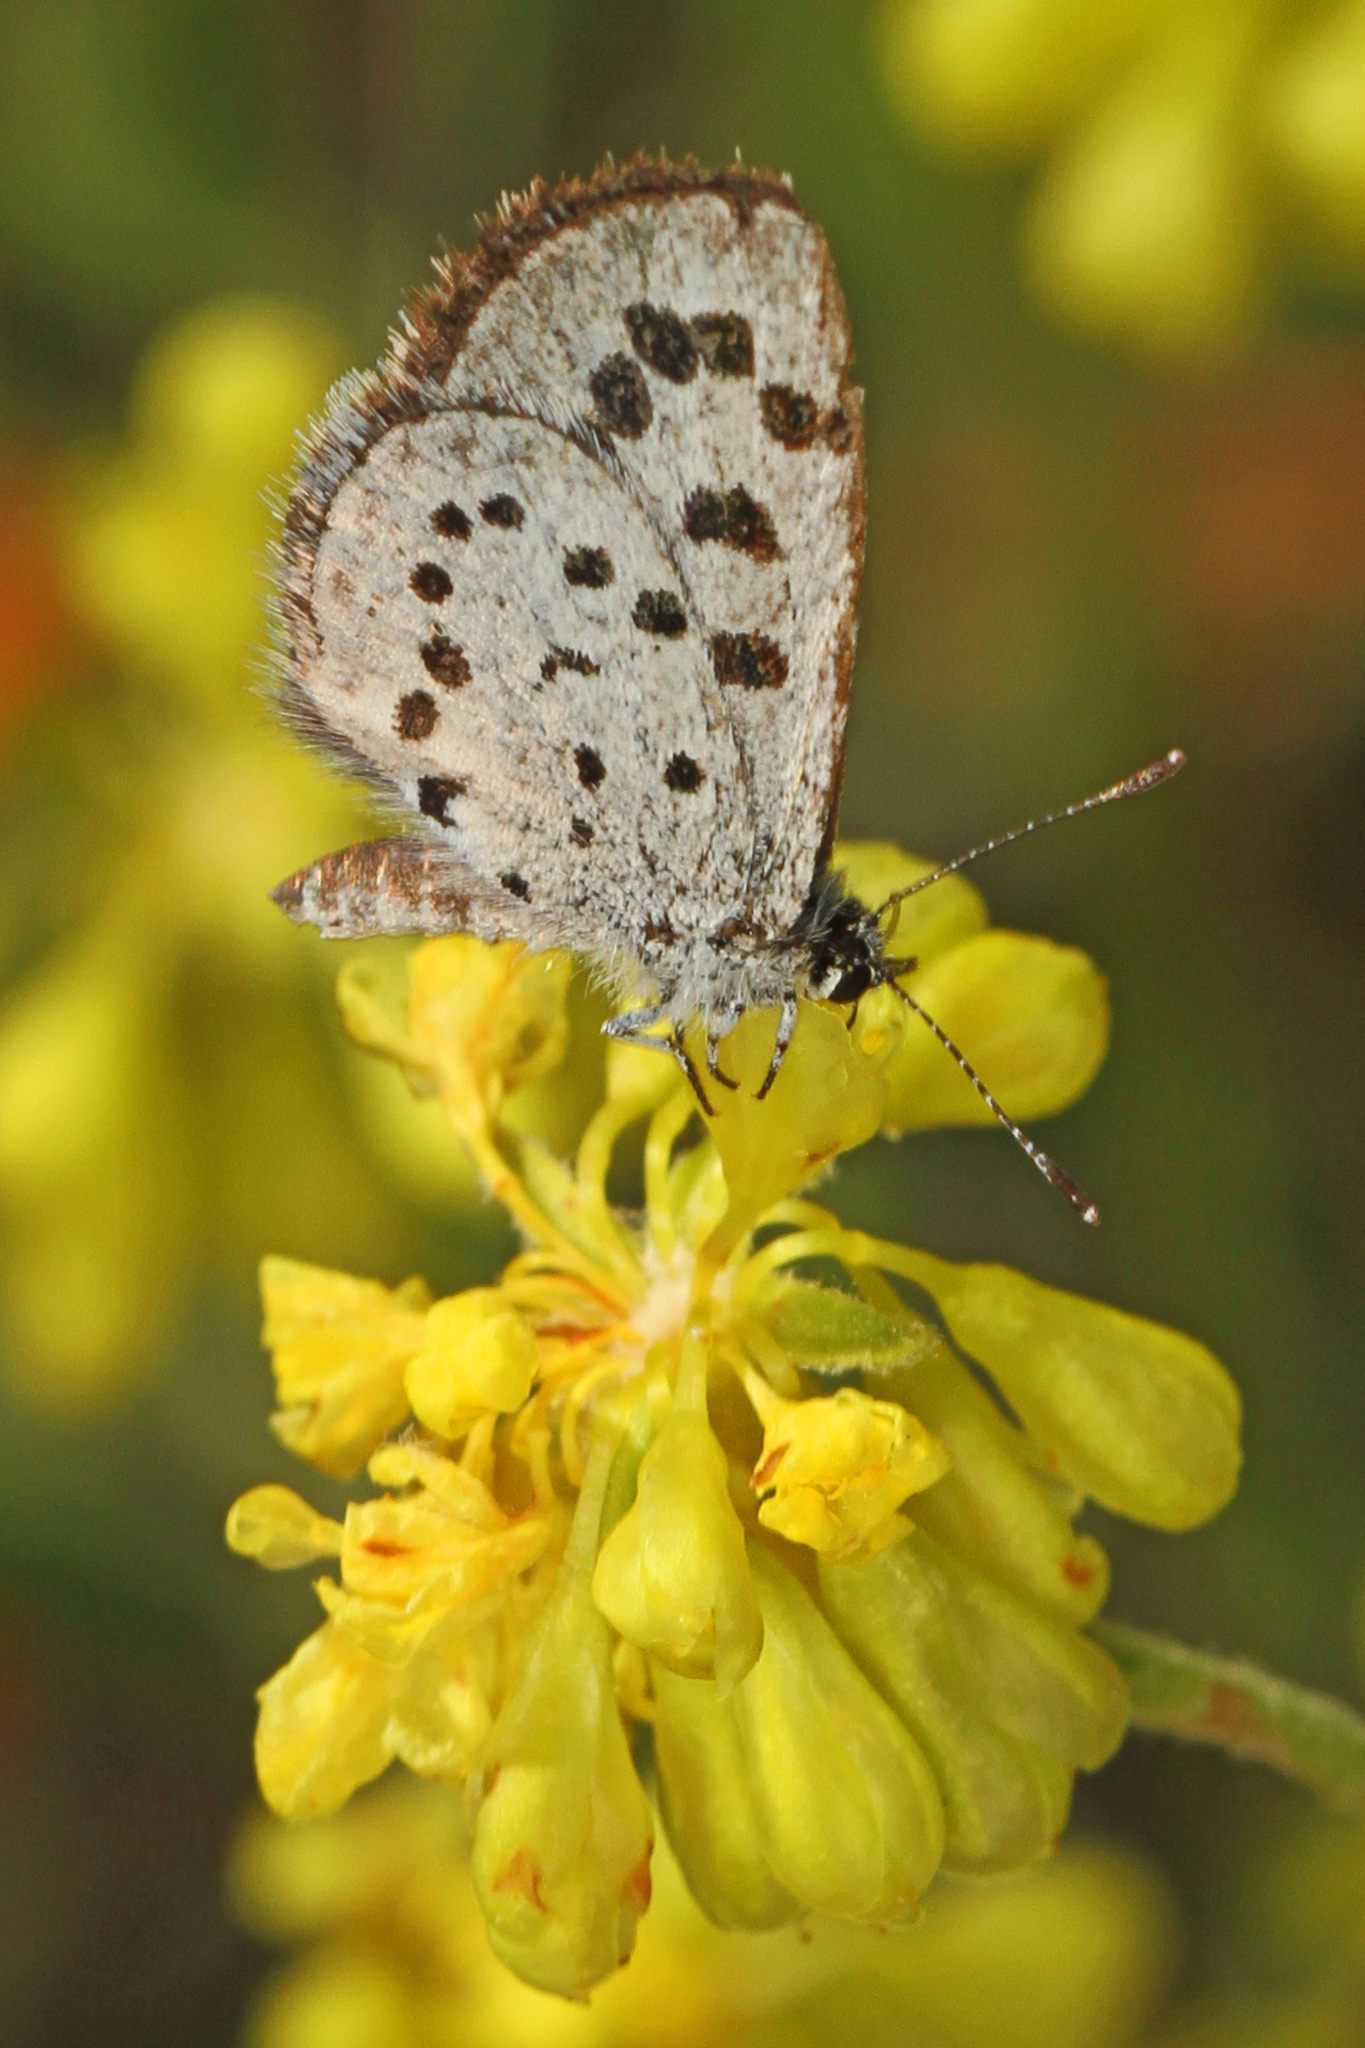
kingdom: Animalia
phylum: Arthropoda
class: Insecta
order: Lepidoptera
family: Lycaenidae
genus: Philotiella
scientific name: Philotiella leona
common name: Leona blue
